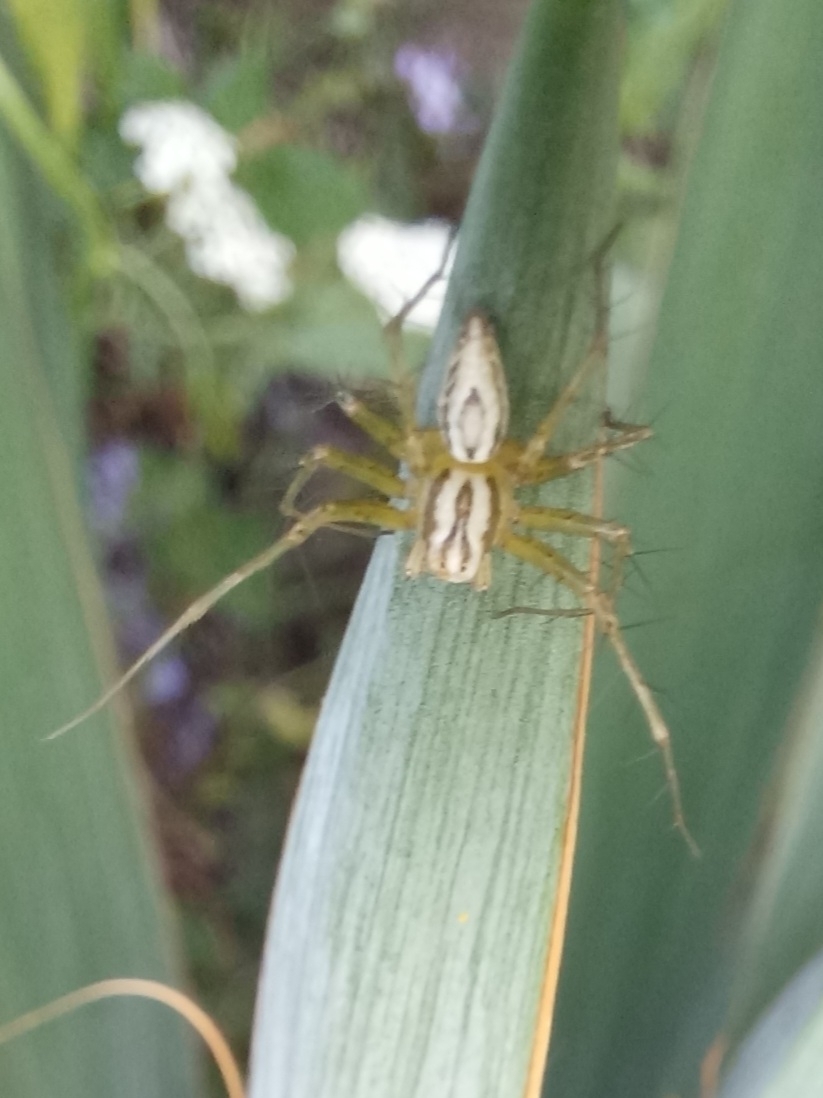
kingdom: Animalia
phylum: Arthropoda
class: Arachnida
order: Araneae
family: Oxyopidae
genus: Oxyopes
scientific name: Oxyopes lineatus
